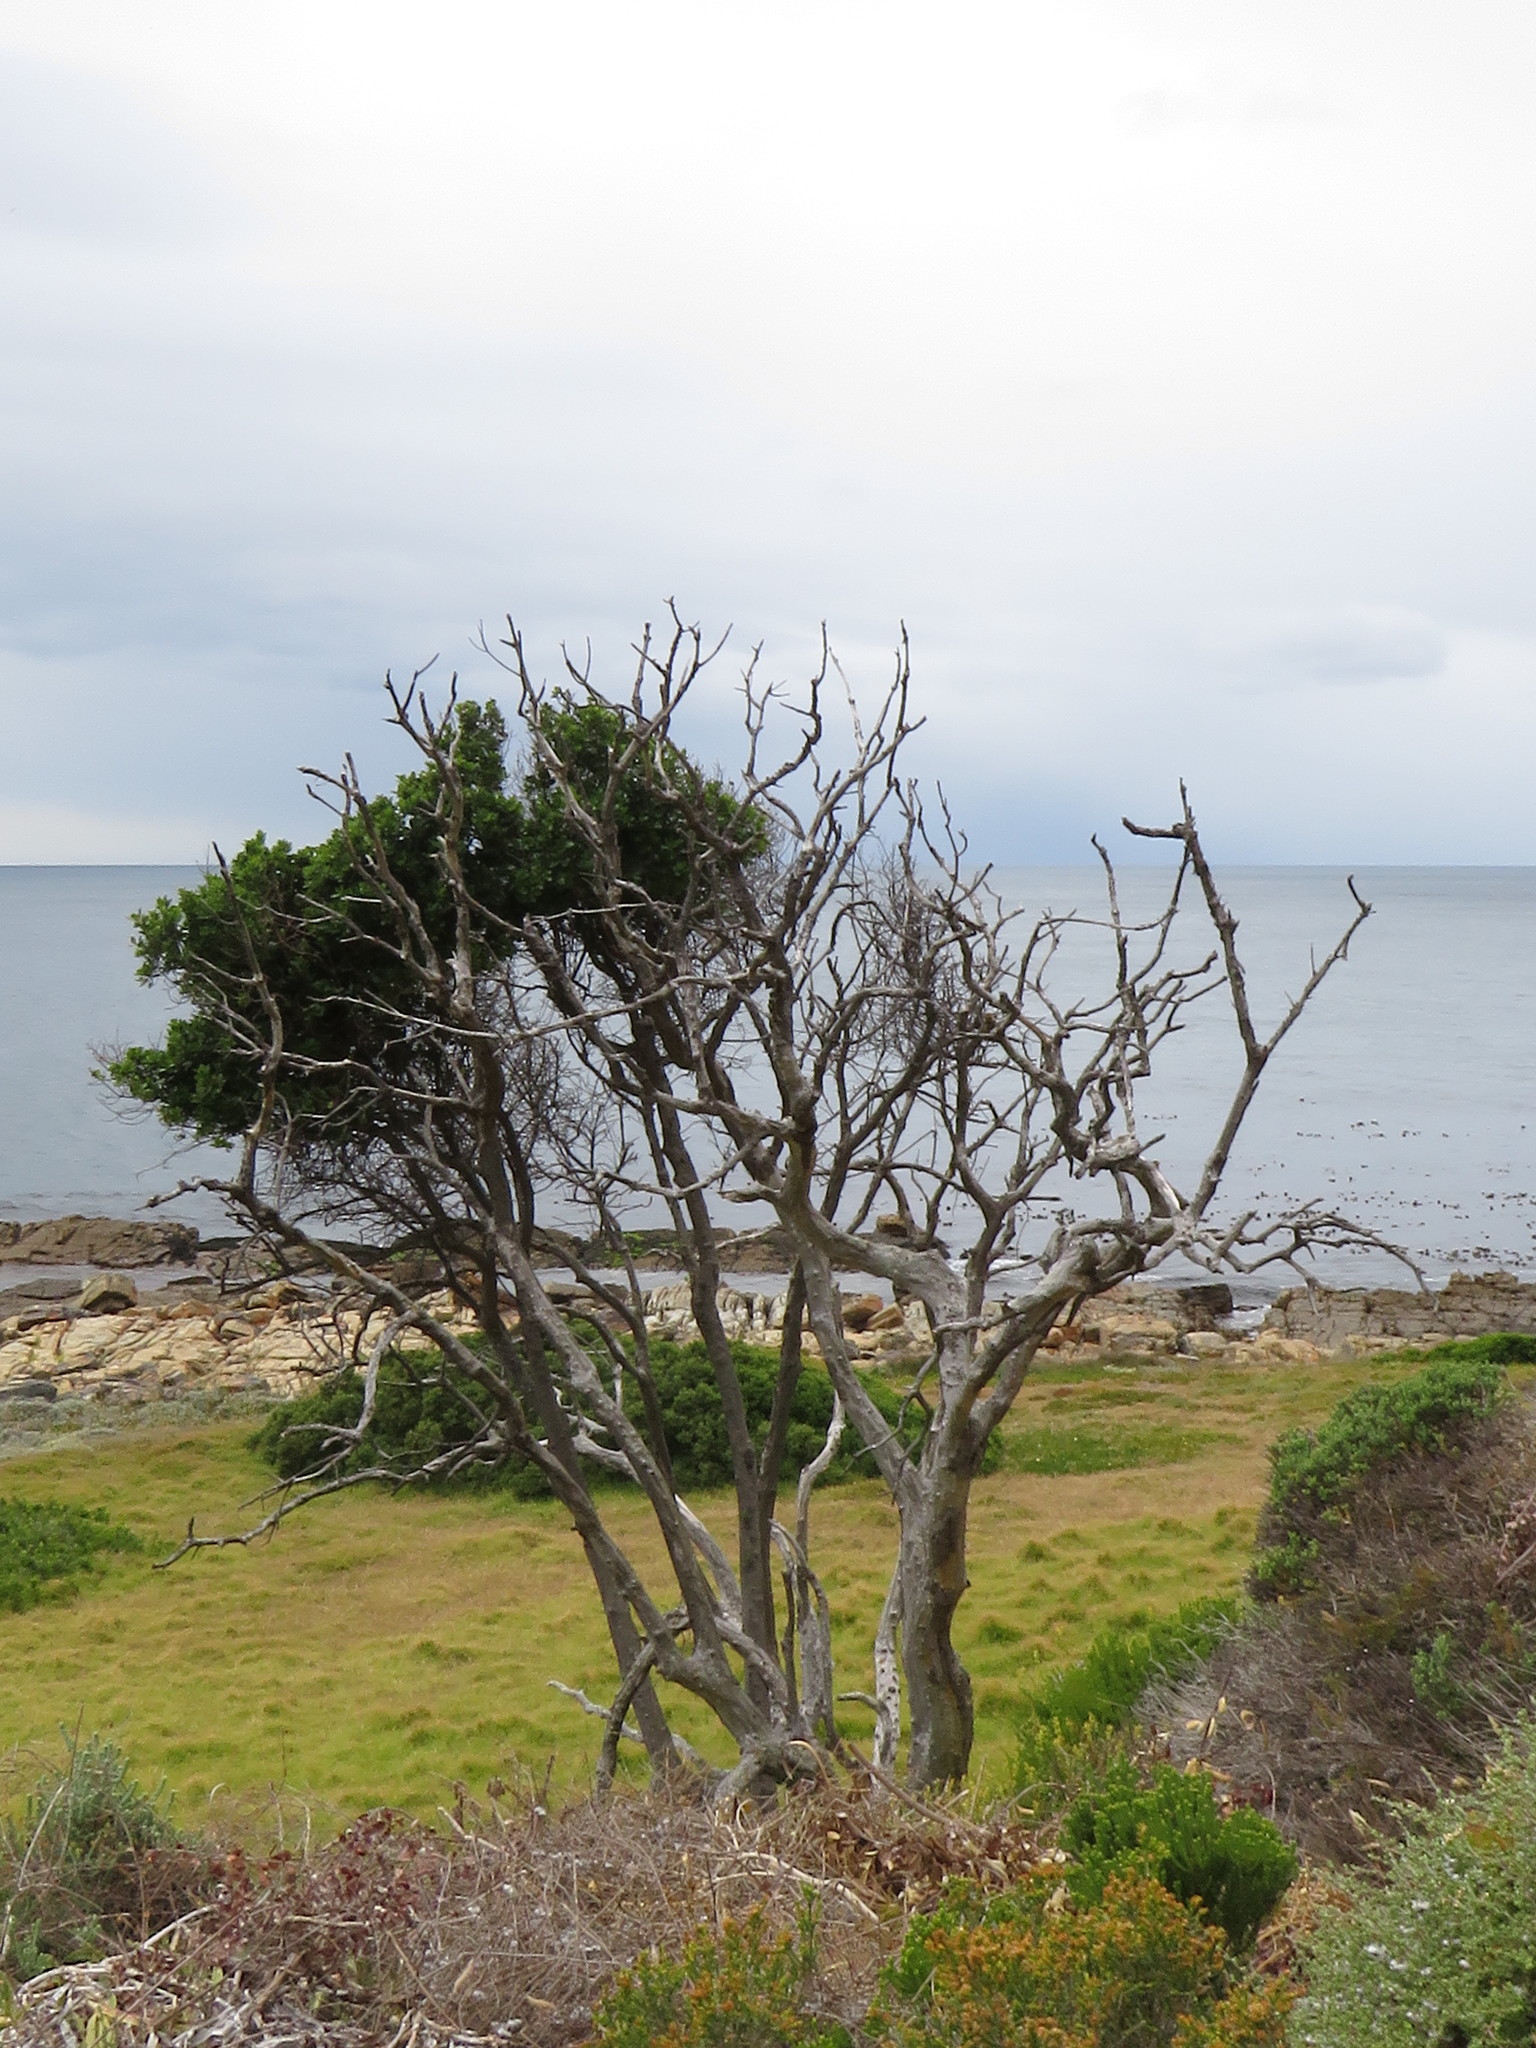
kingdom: Plantae
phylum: Tracheophyta
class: Magnoliopsida
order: Ericales
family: Sapotaceae
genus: Sideroxylon
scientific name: Sideroxylon inerme
